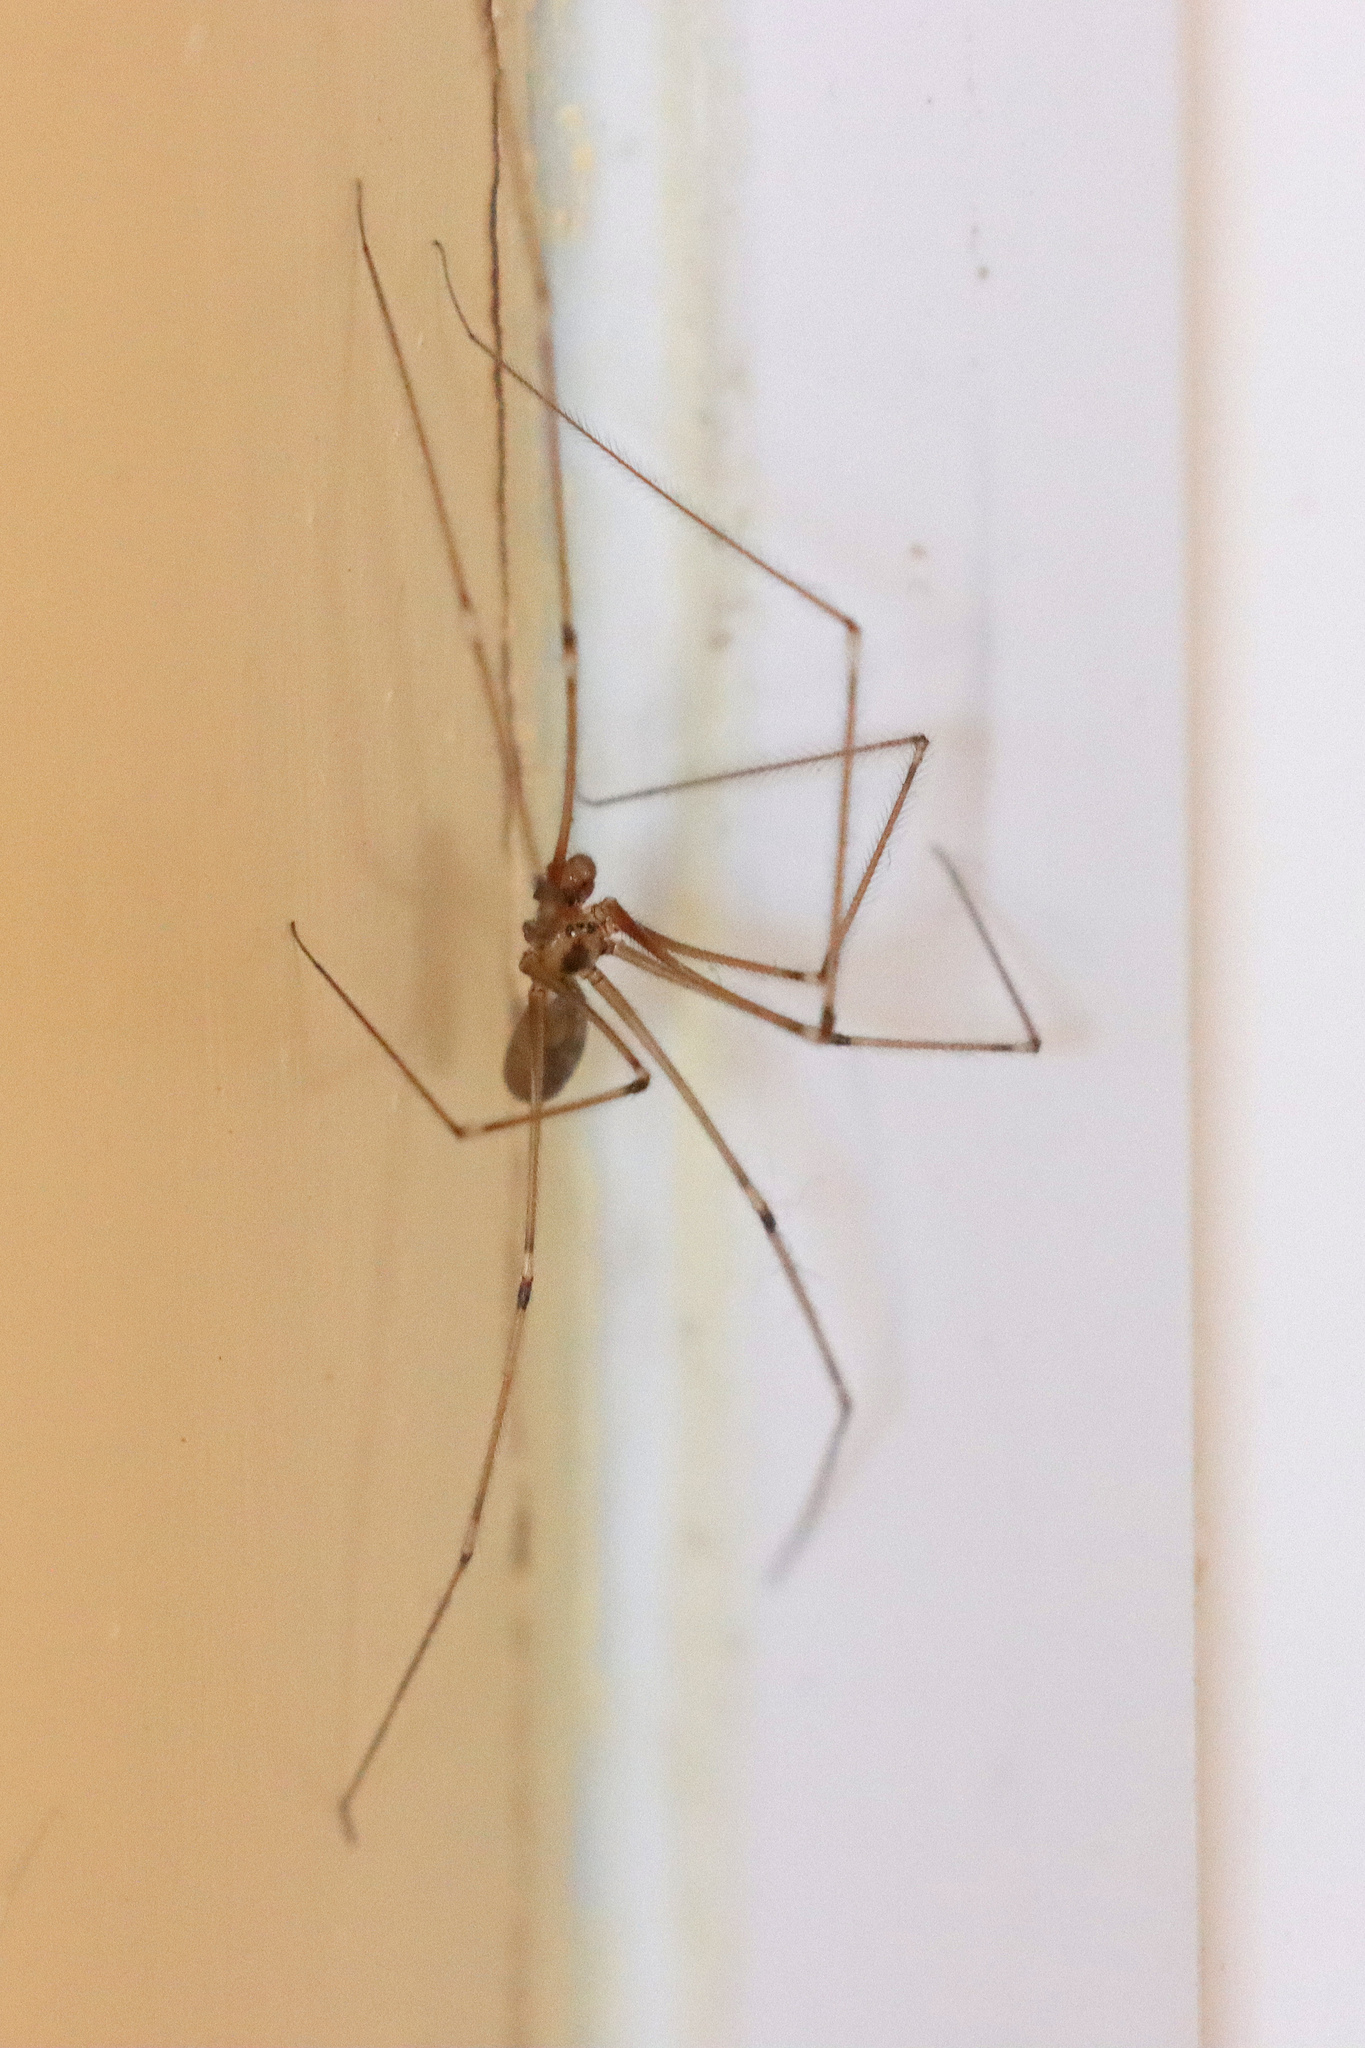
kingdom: Animalia
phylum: Arthropoda
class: Arachnida
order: Araneae
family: Pholcidae
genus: Pholcus
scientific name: Pholcus phalangioides
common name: Longbodied cellar spider
